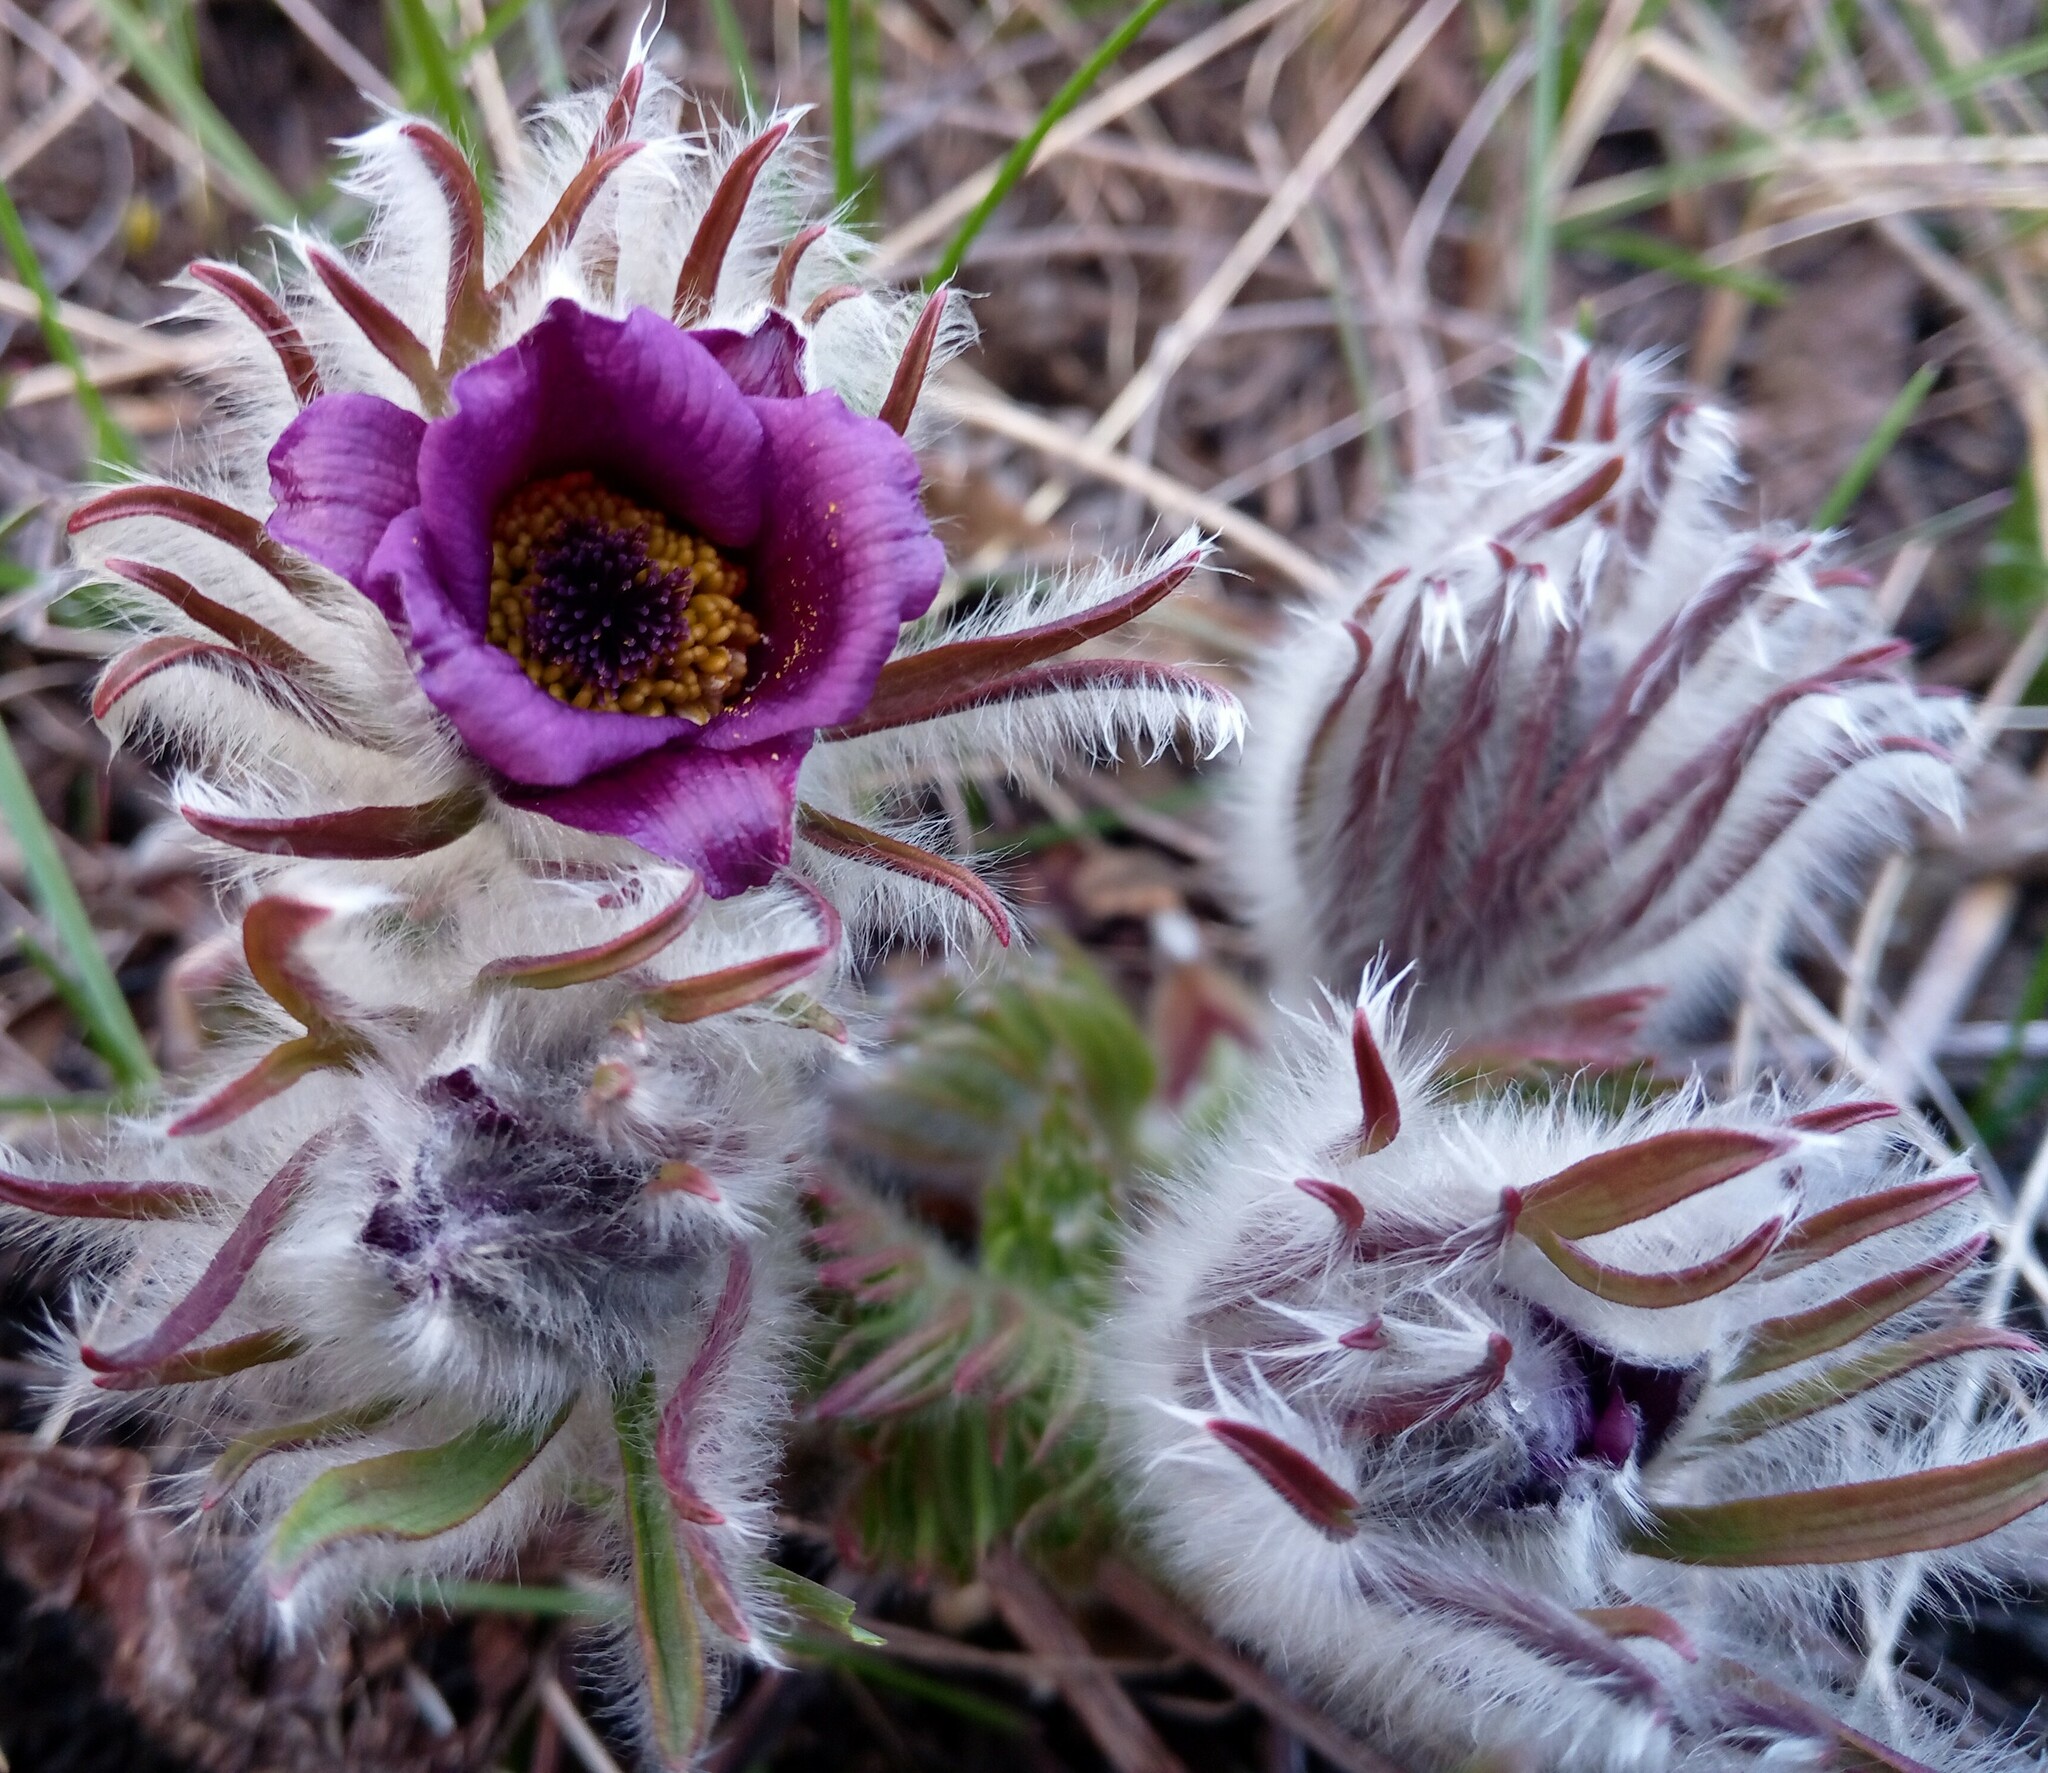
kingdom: Plantae
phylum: Tracheophyta
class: Magnoliopsida
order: Ranunculales
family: Ranunculaceae
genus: Pulsatilla
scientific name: Pulsatilla pratensis
